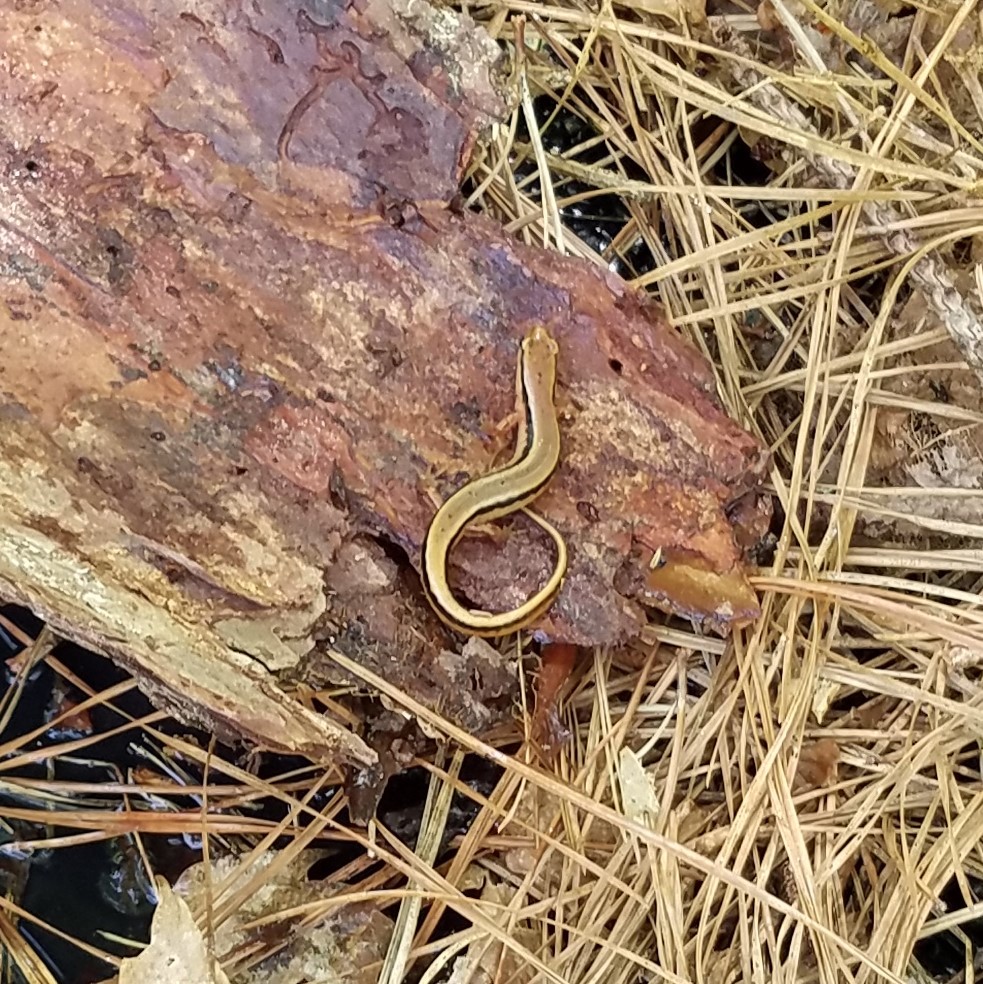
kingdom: Animalia
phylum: Chordata
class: Amphibia
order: Caudata
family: Plethodontidae
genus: Eurycea
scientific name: Eurycea cirrigera
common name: Southern two-lined salamander
